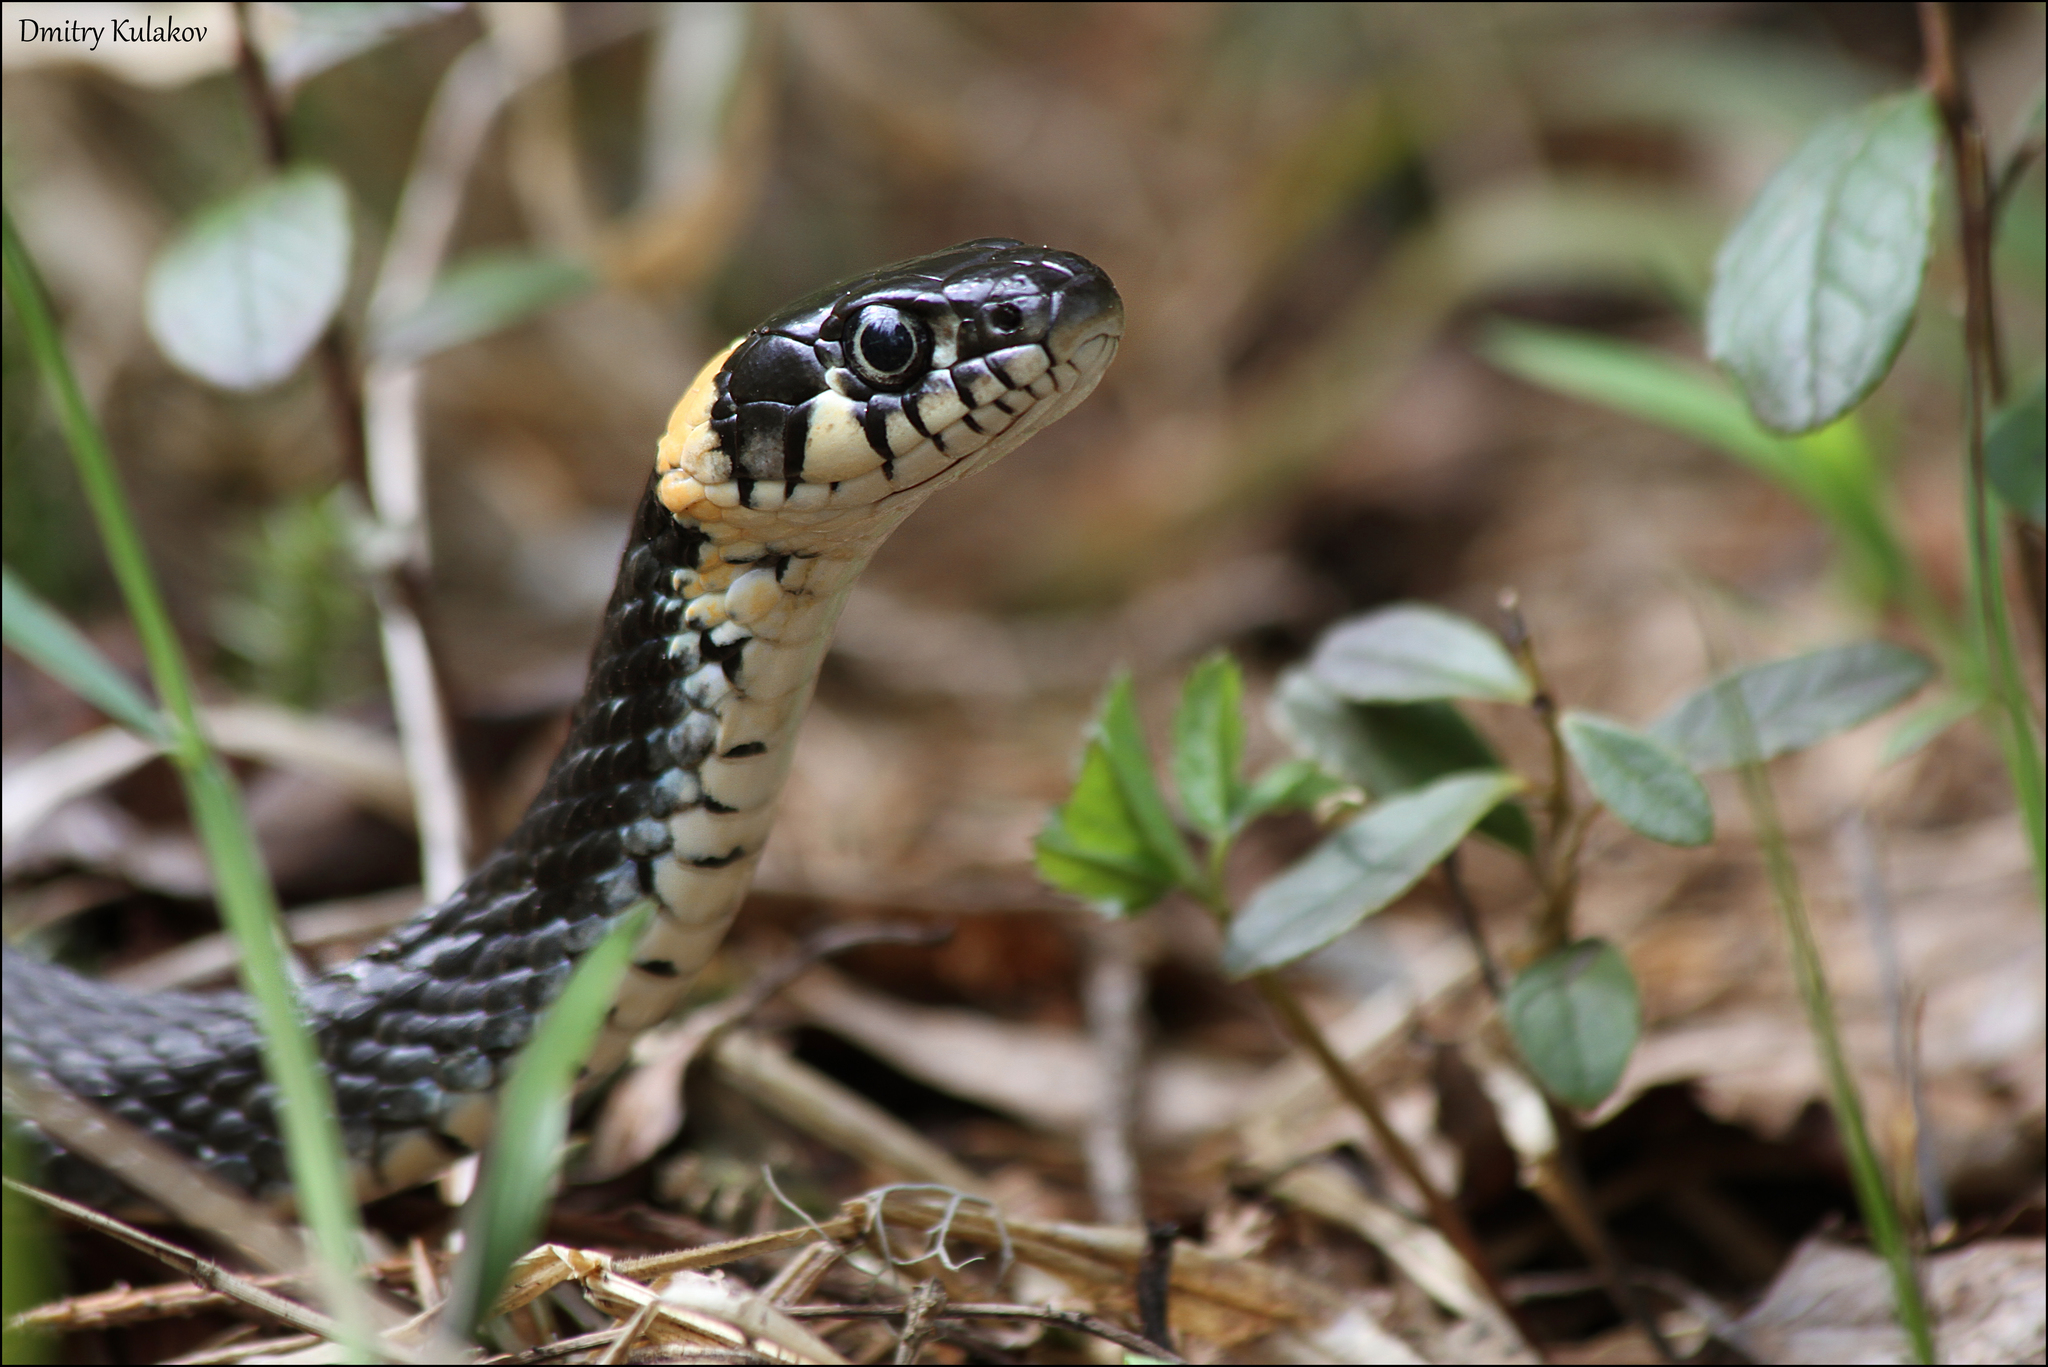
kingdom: Animalia
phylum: Chordata
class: Squamata
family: Colubridae
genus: Natrix
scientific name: Natrix natrix
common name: Grass snake
